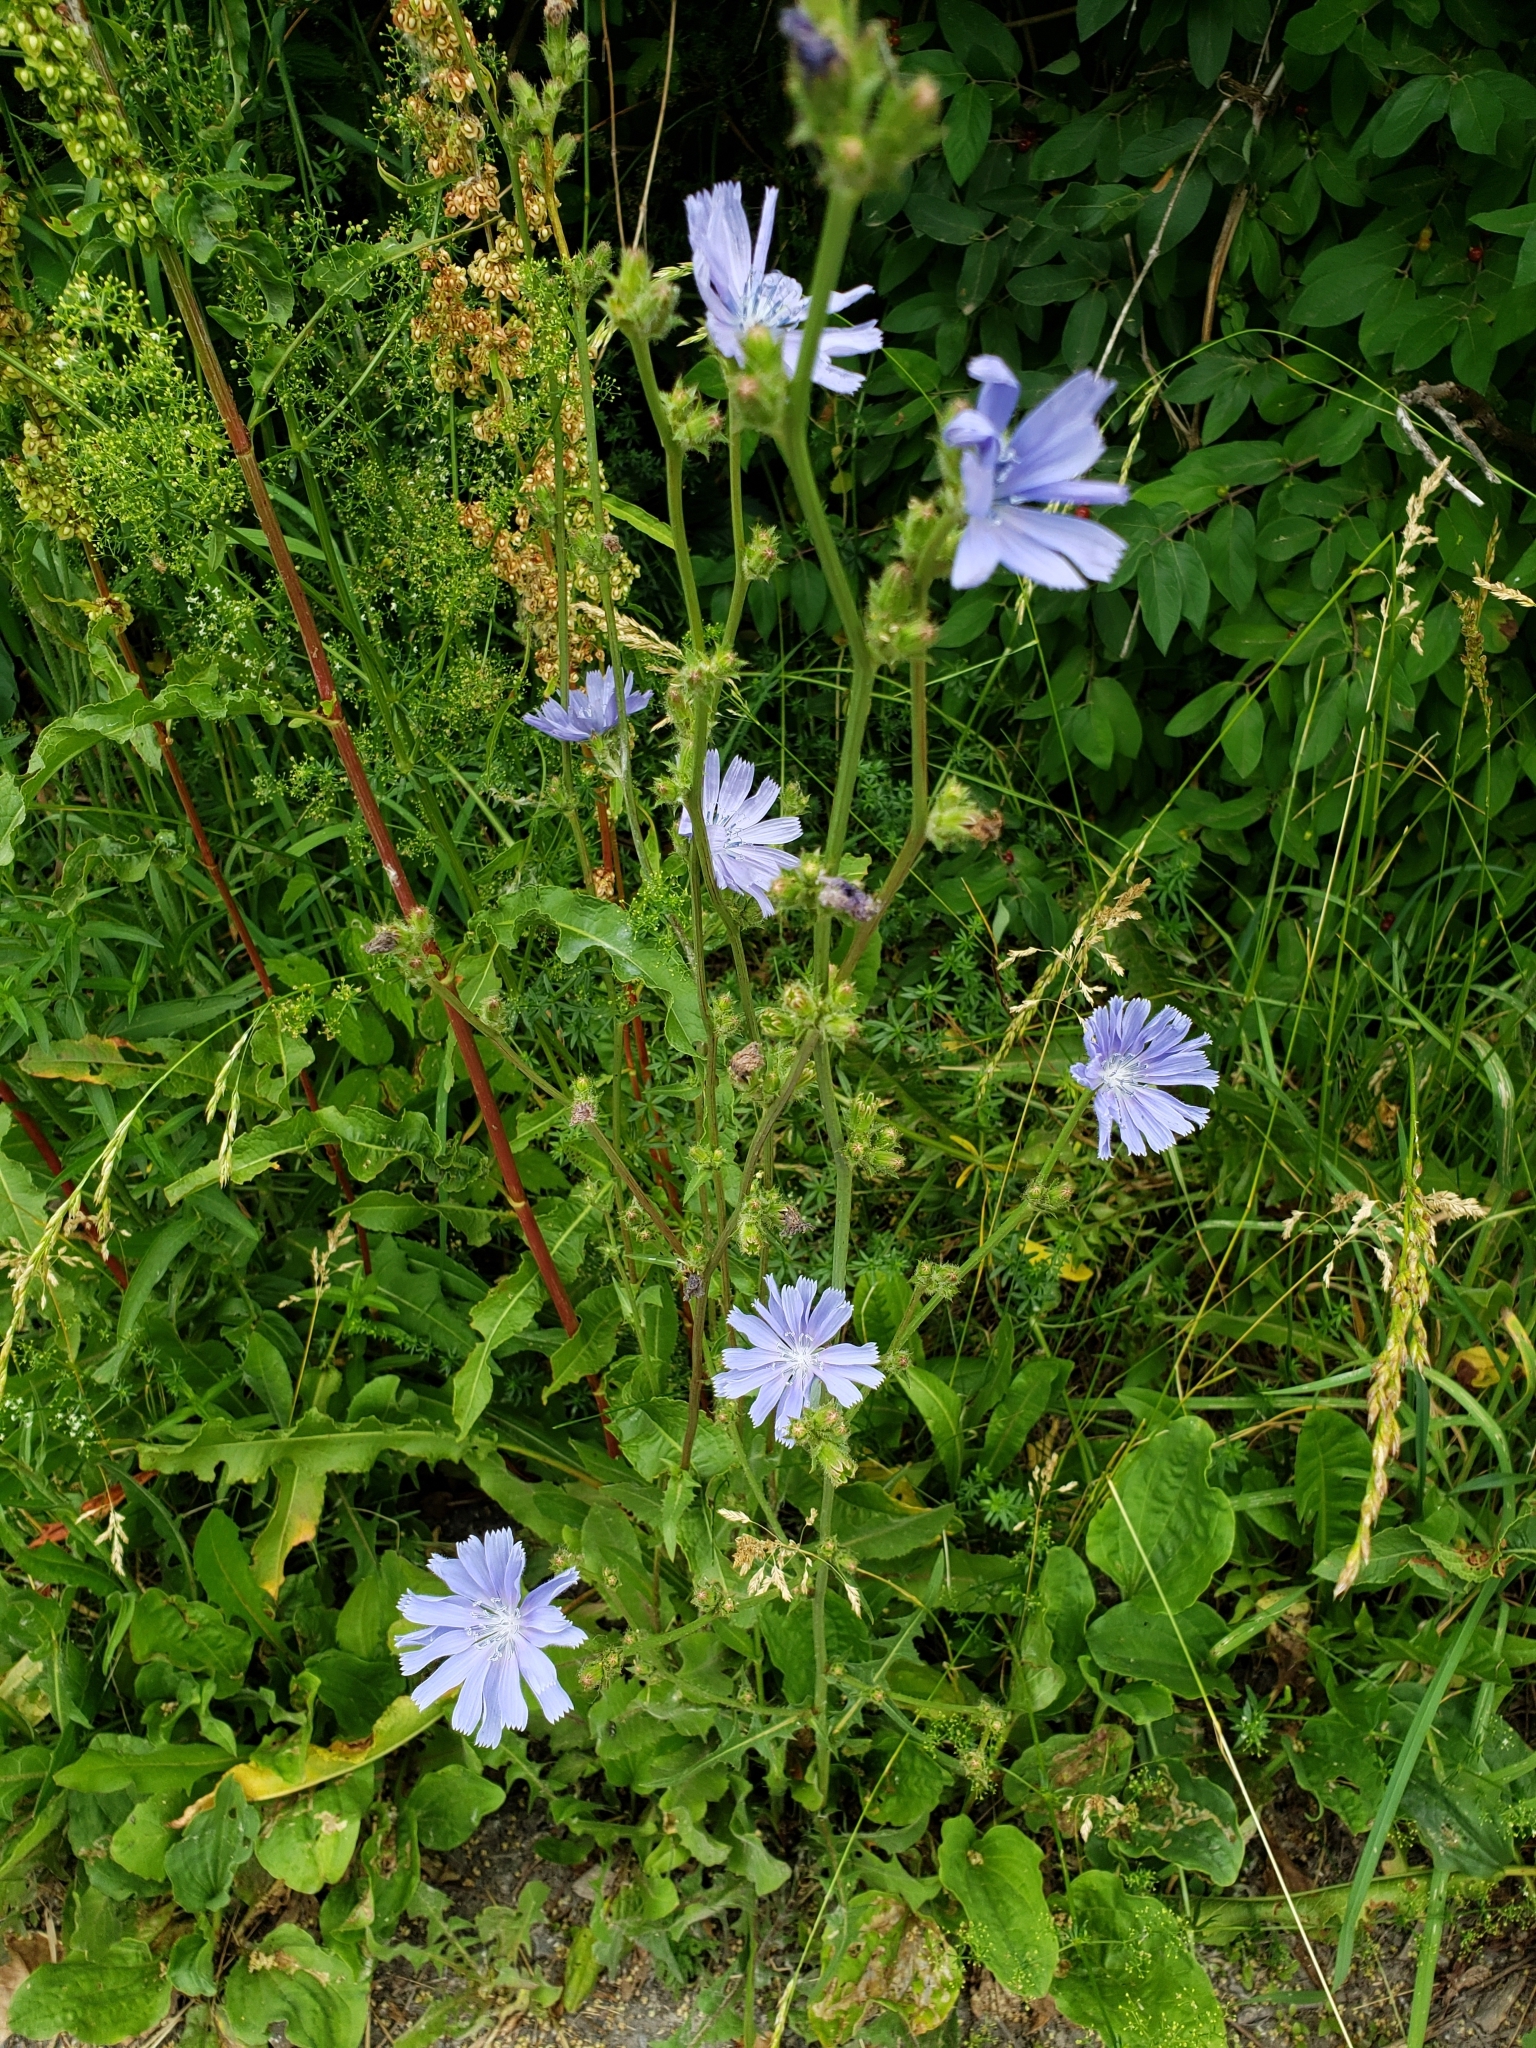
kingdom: Plantae
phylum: Tracheophyta
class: Magnoliopsida
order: Asterales
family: Asteraceae
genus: Cichorium
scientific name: Cichorium intybus
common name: Chicory
